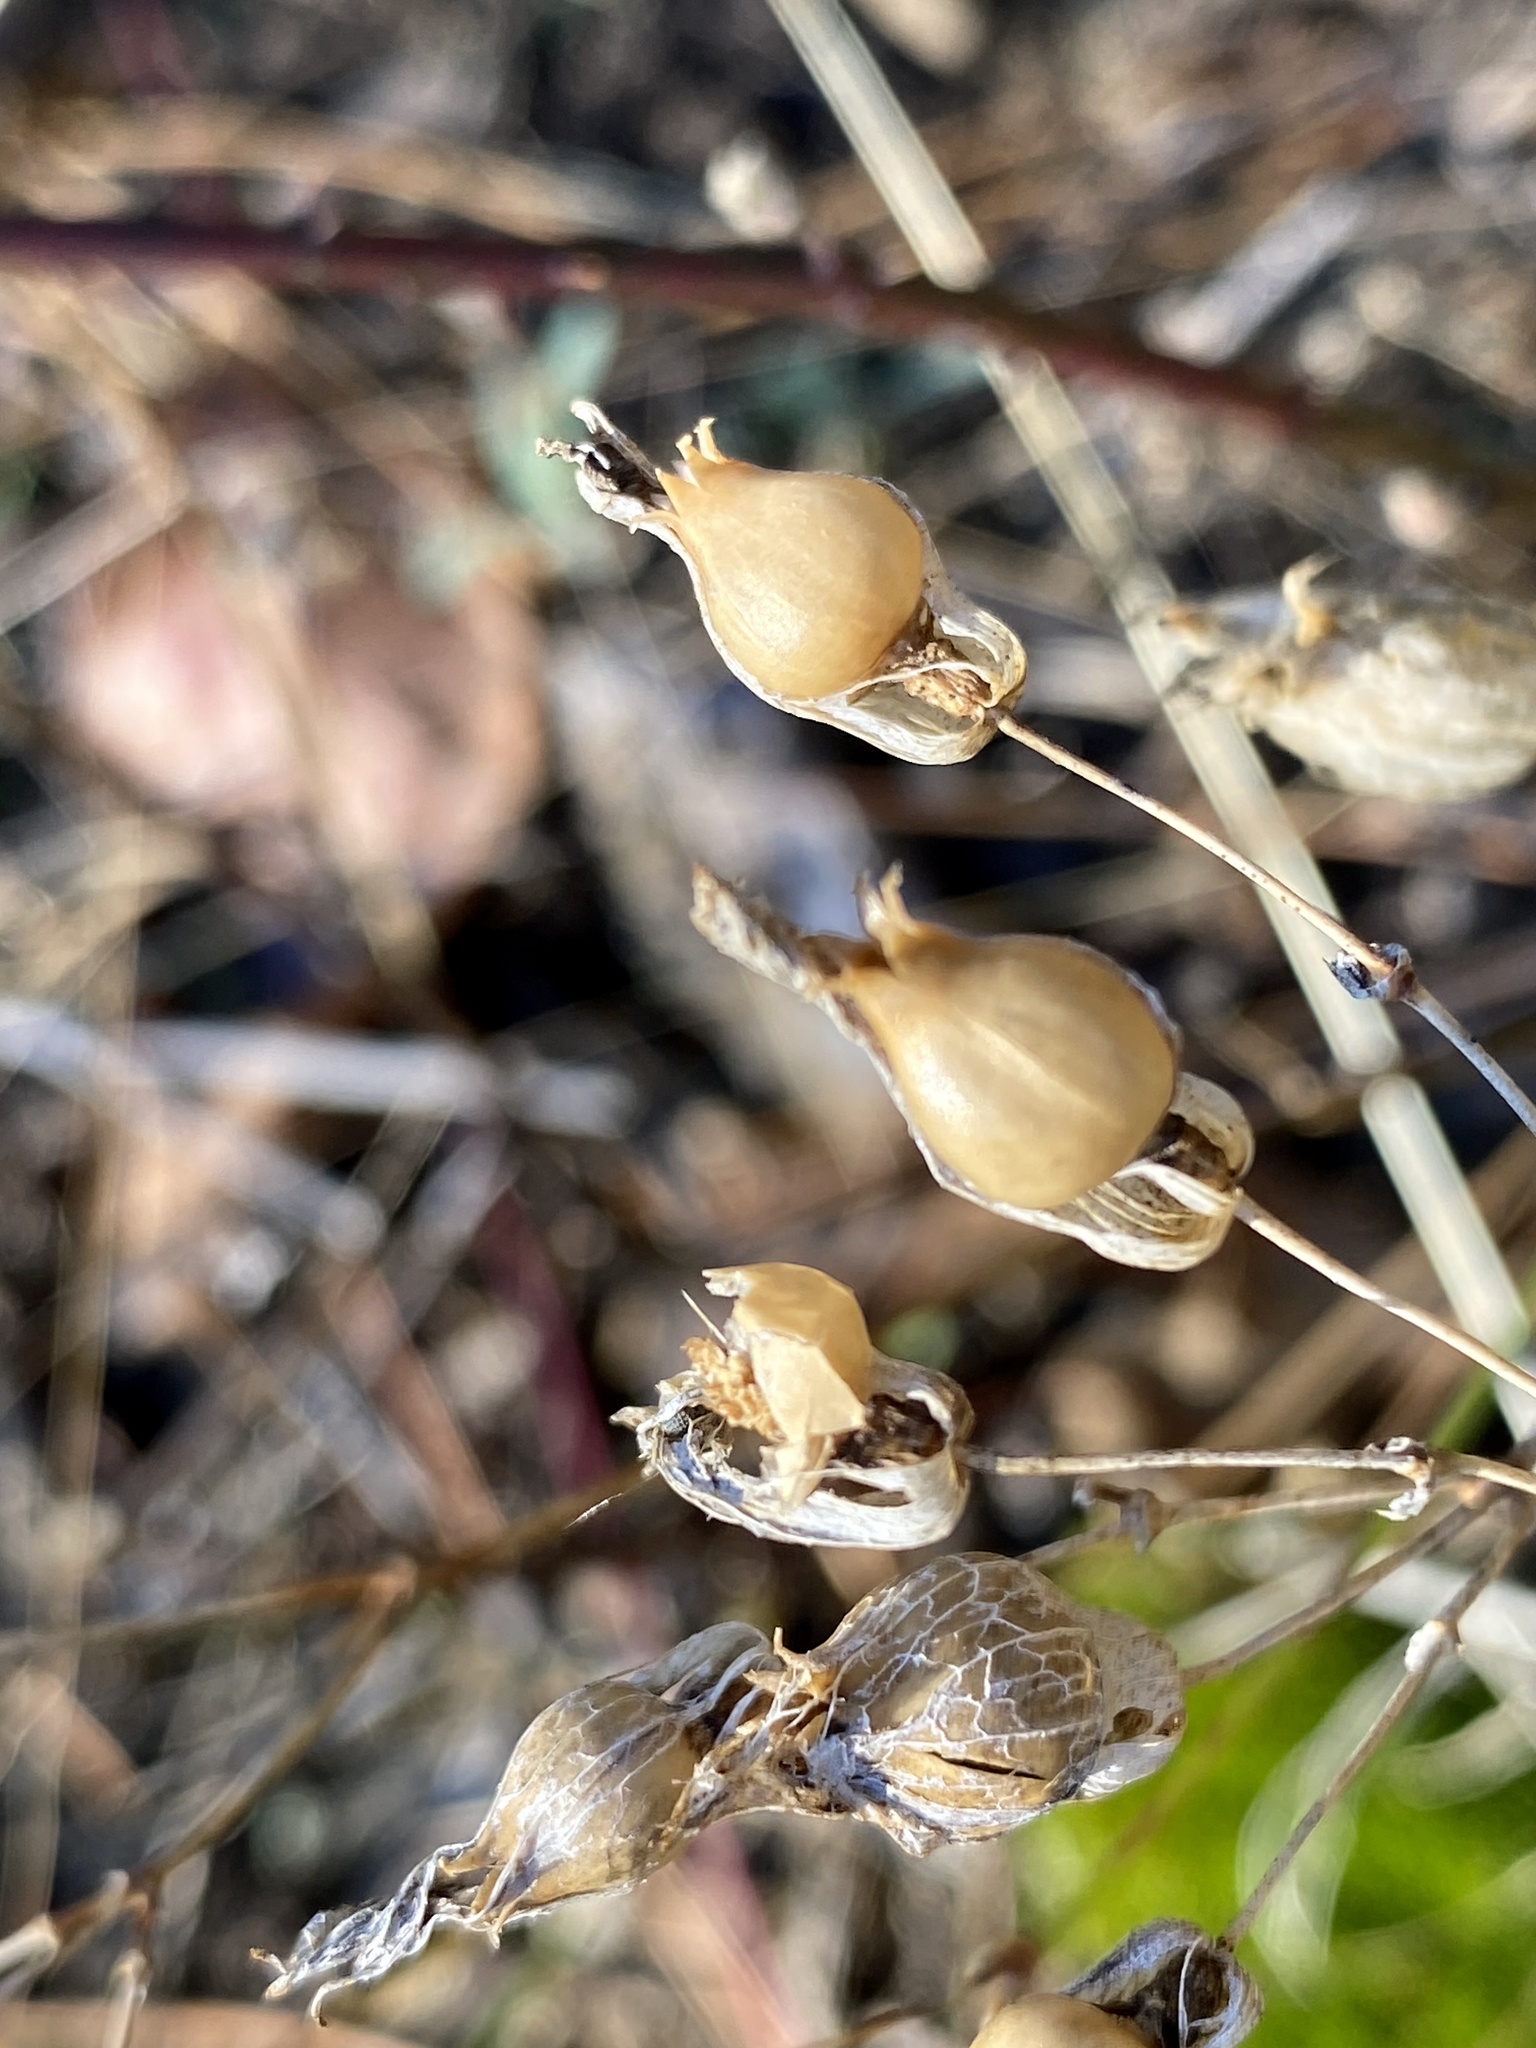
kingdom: Plantae
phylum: Tracheophyta
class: Magnoliopsida
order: Caryophyllales
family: Caryophyllaceae
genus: Silene
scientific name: Silene vulgaris
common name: Bladder campion
